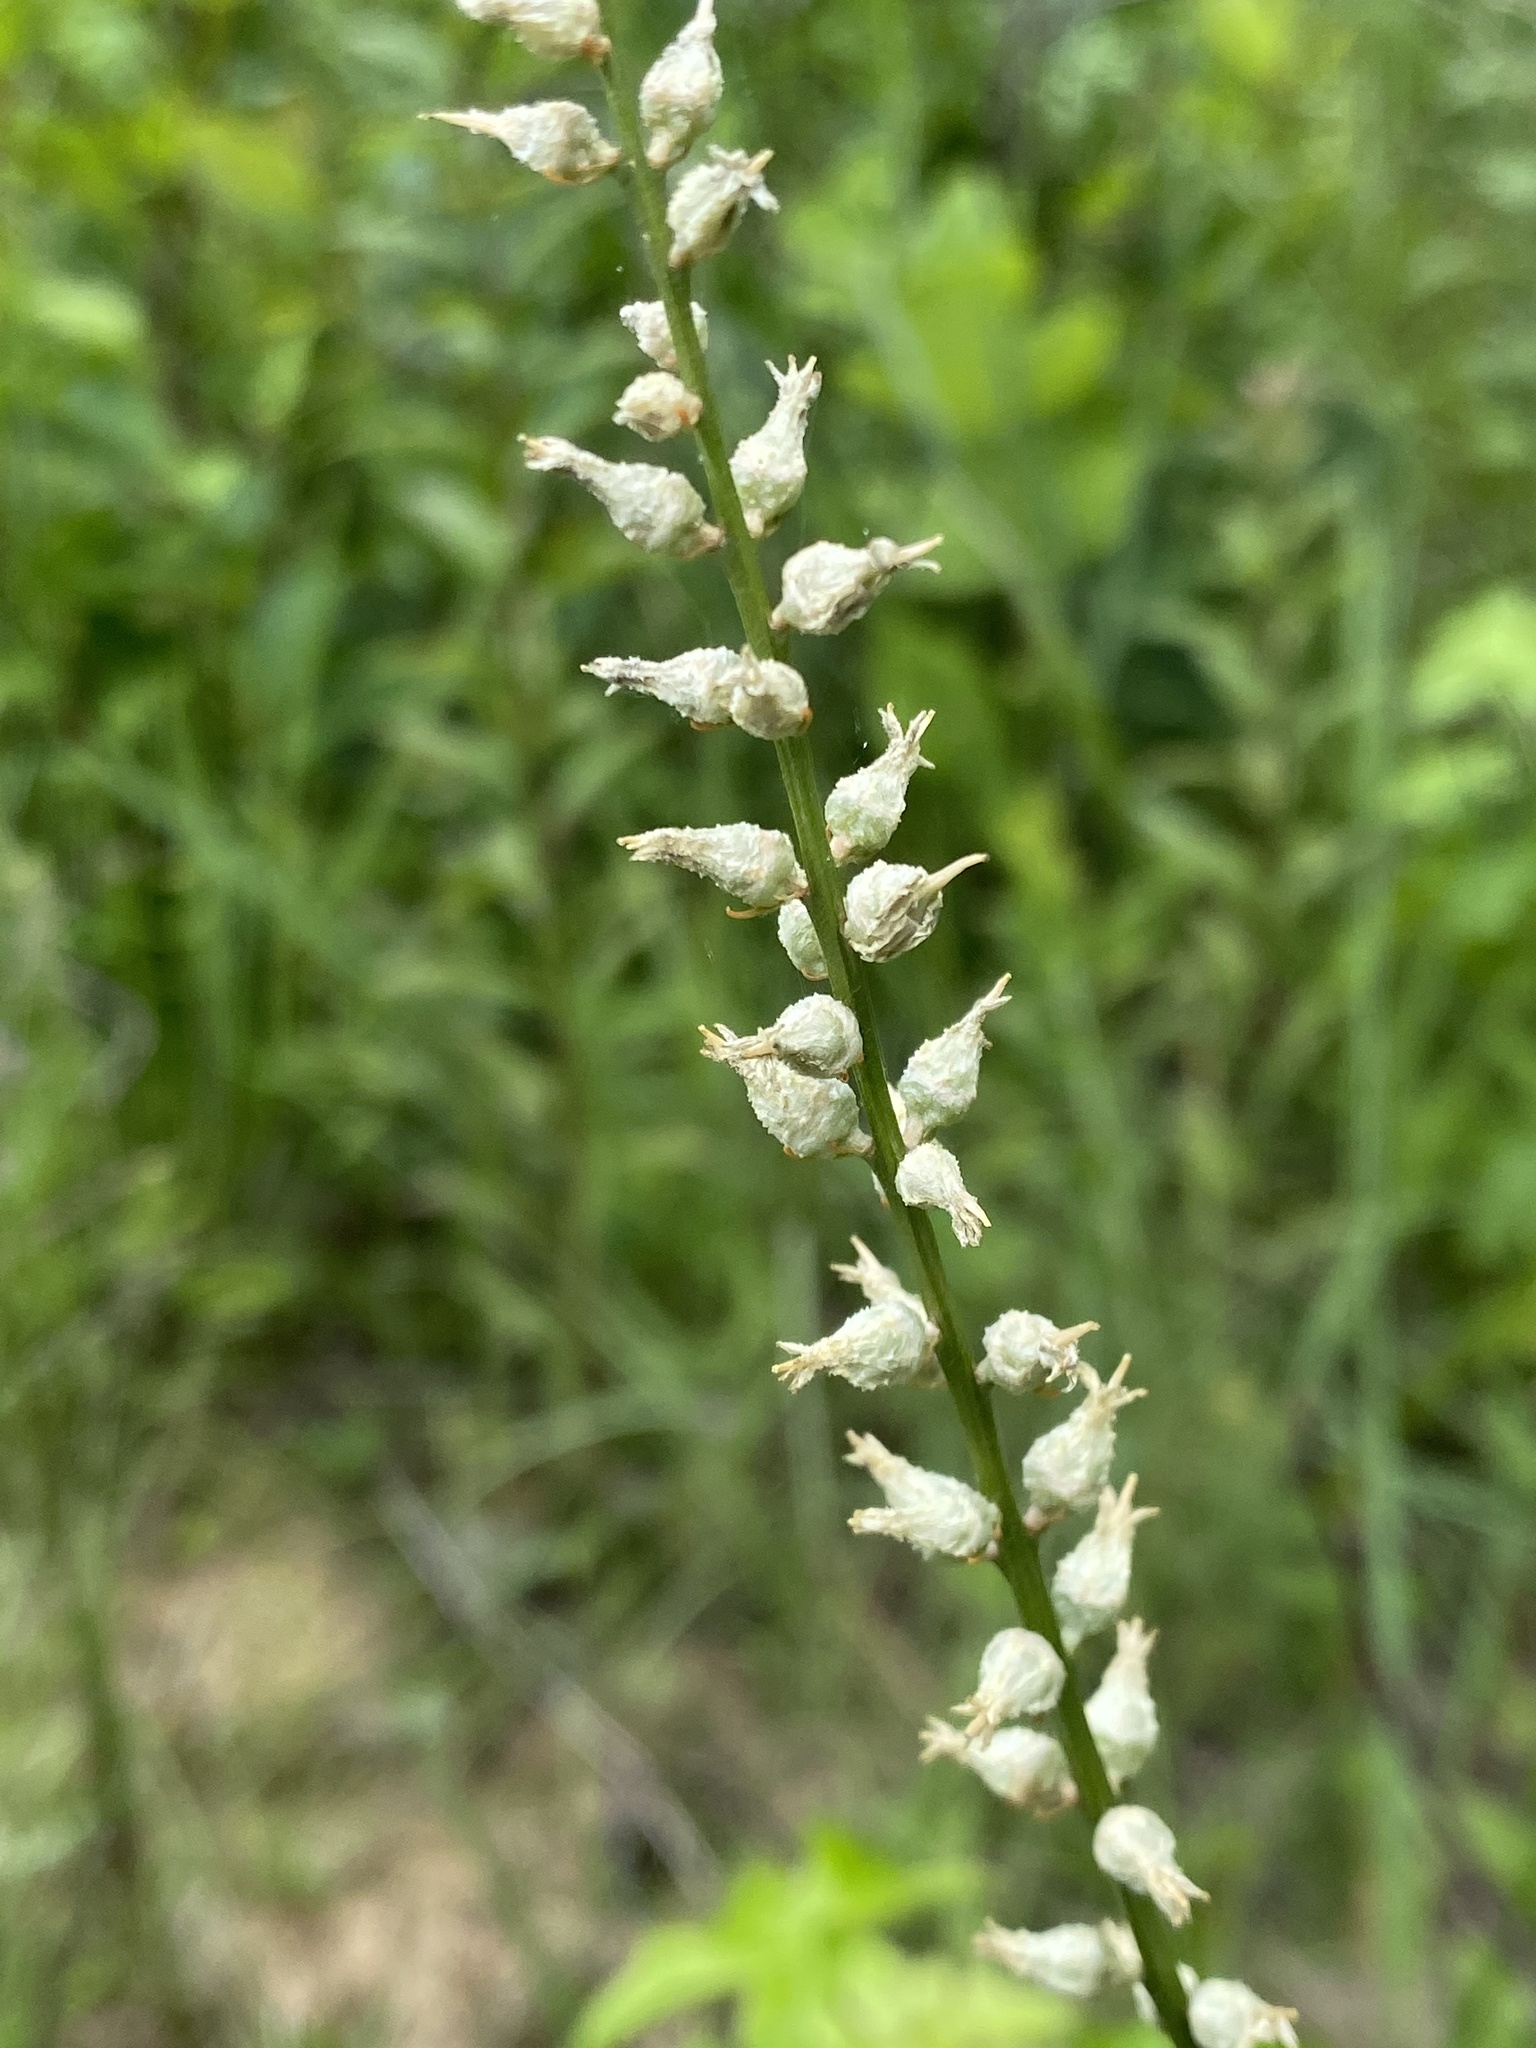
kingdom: Plantae
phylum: Tracheophyta
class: Liliopsida
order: Dioscoreales
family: Nartheciaceae
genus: Aletris
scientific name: Aletris farinosa
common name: Colicroot
